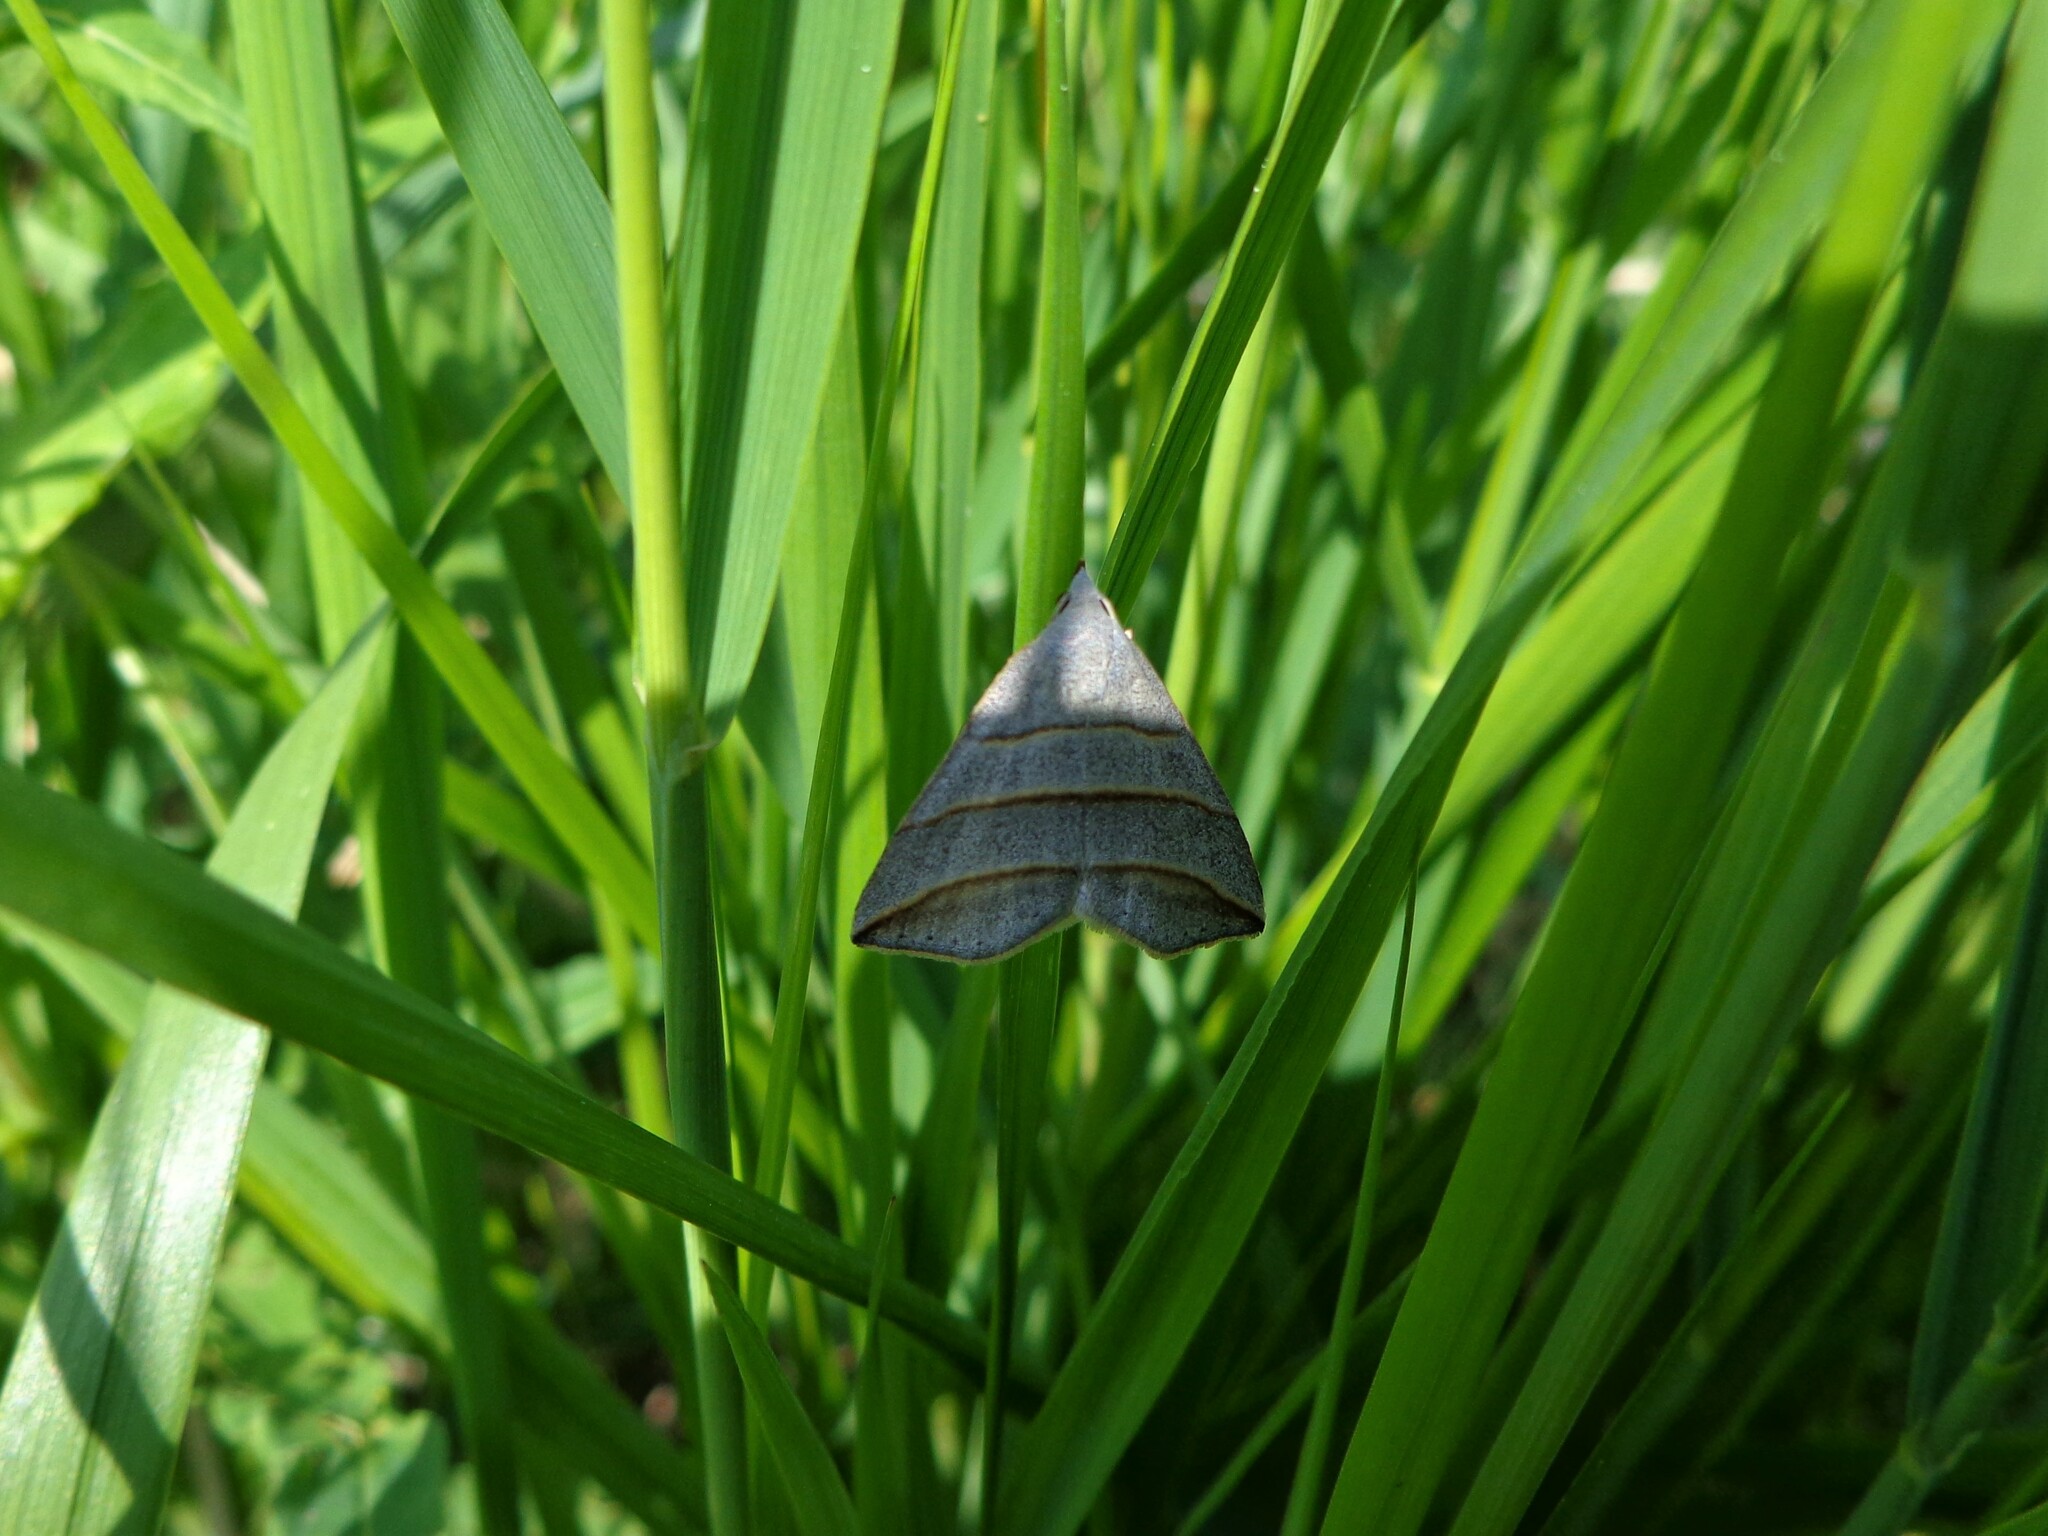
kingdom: Animalia
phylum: Arthropoda
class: Insecta
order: Lepidoptera
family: Erebidae
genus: Colobochyla
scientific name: Colobochyla salicalis
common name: Lesser belle
